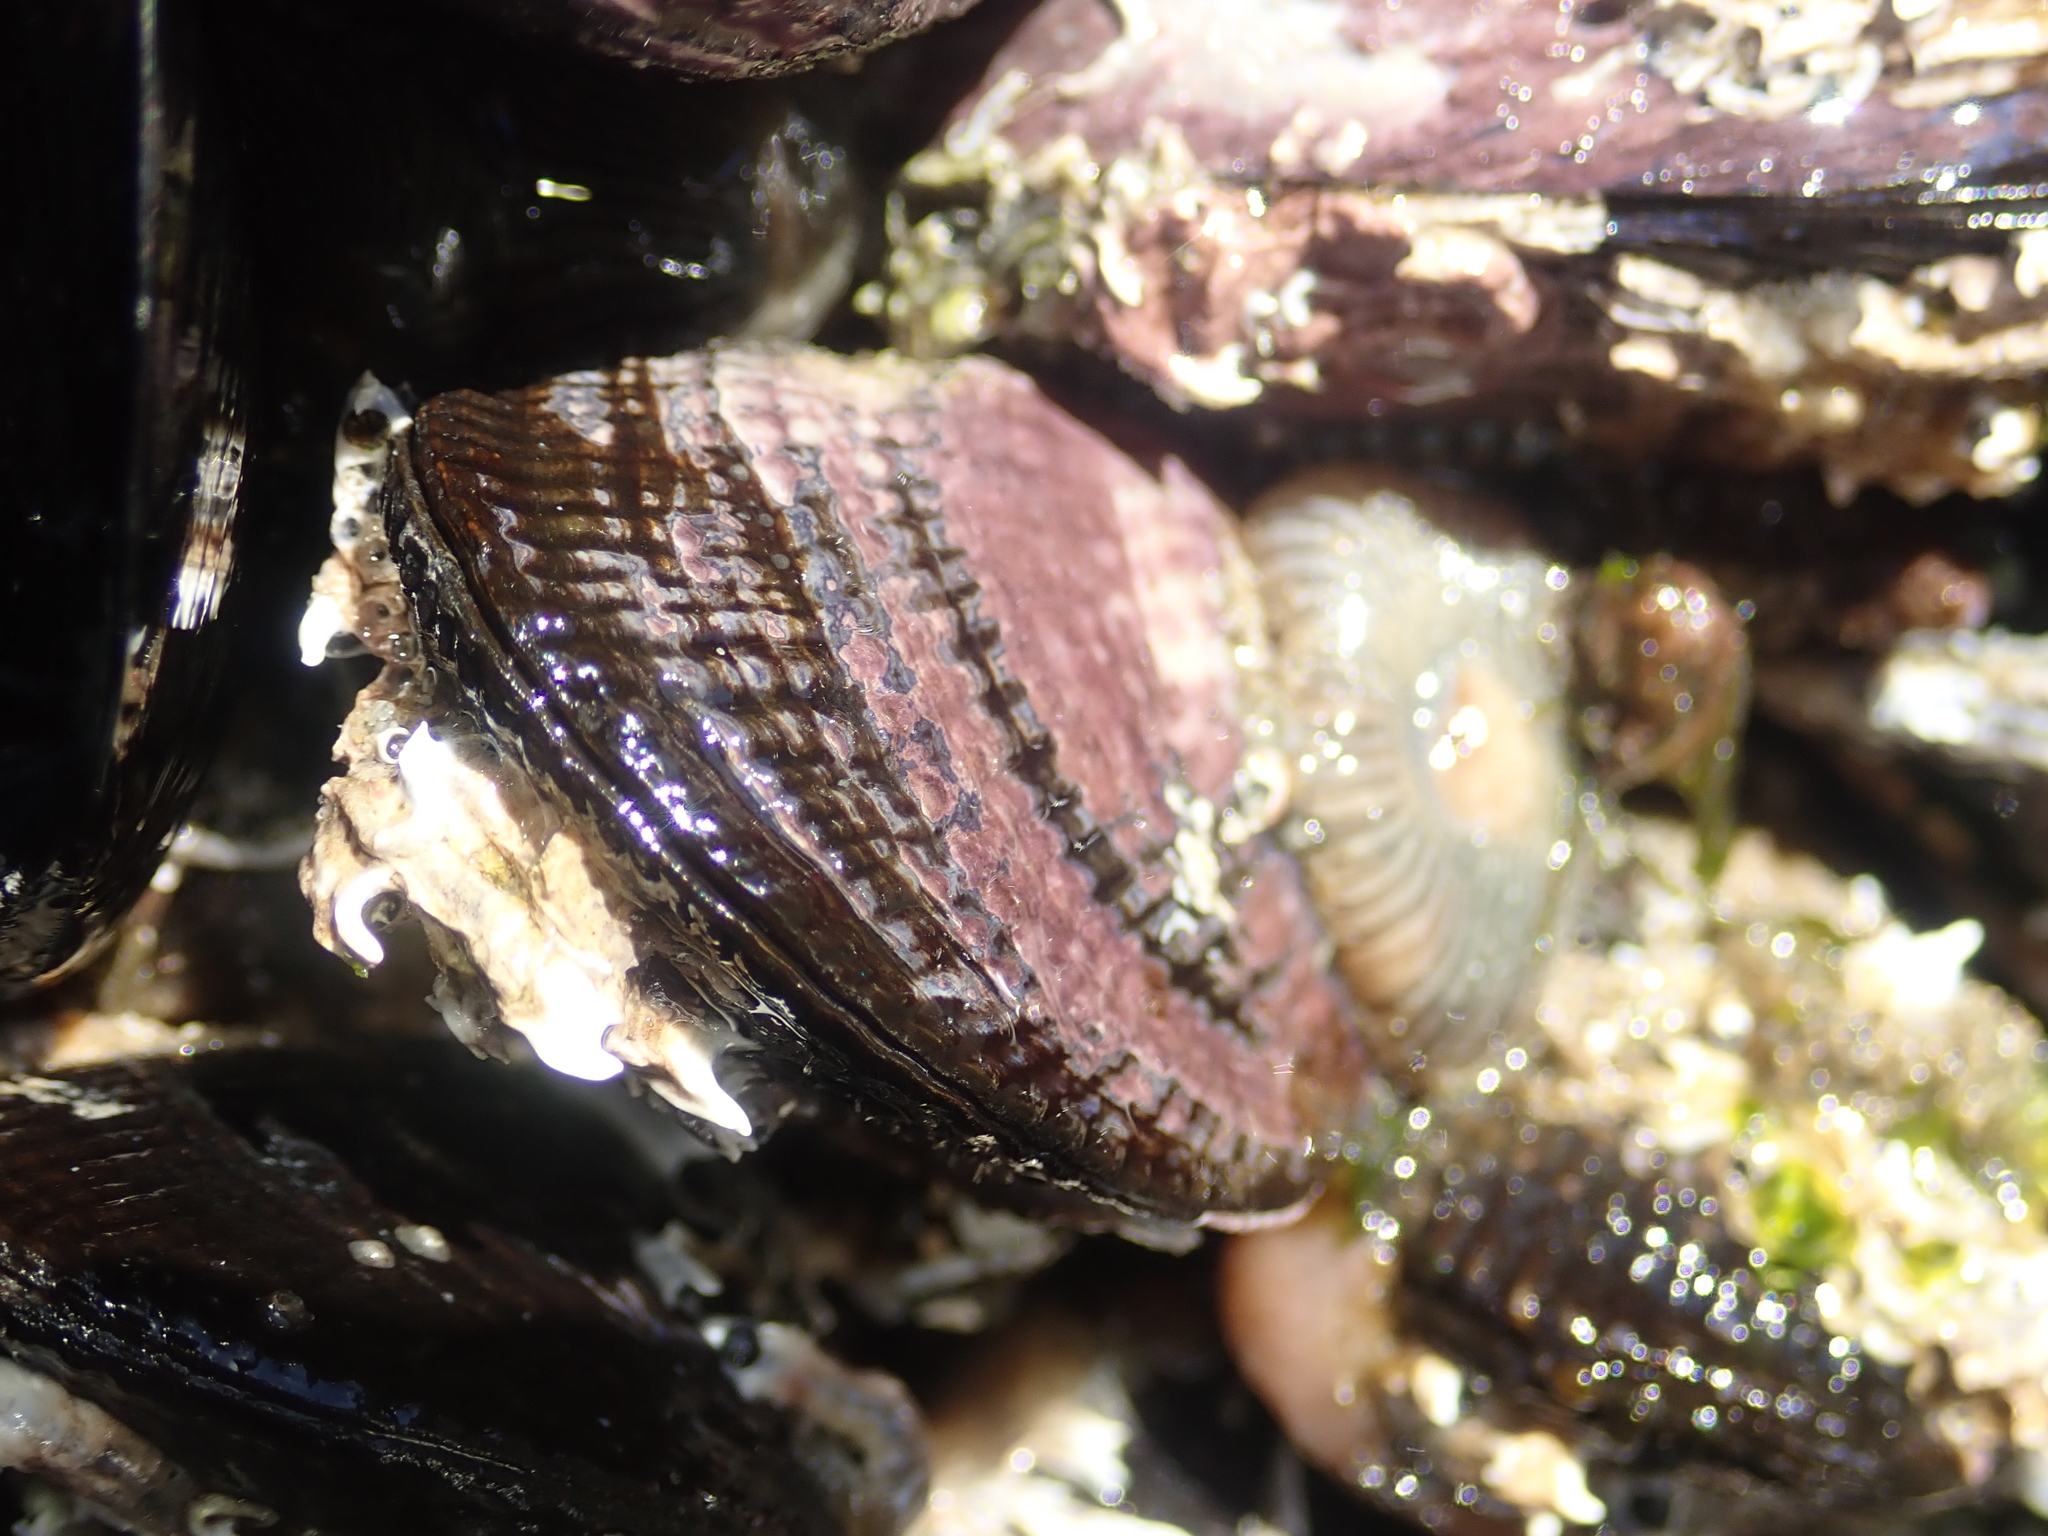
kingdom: Animalia
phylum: Mollusca
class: Bivalvia
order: Mytilida
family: Mytilidae
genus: Aulacomya
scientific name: Aulacomya maoriana
